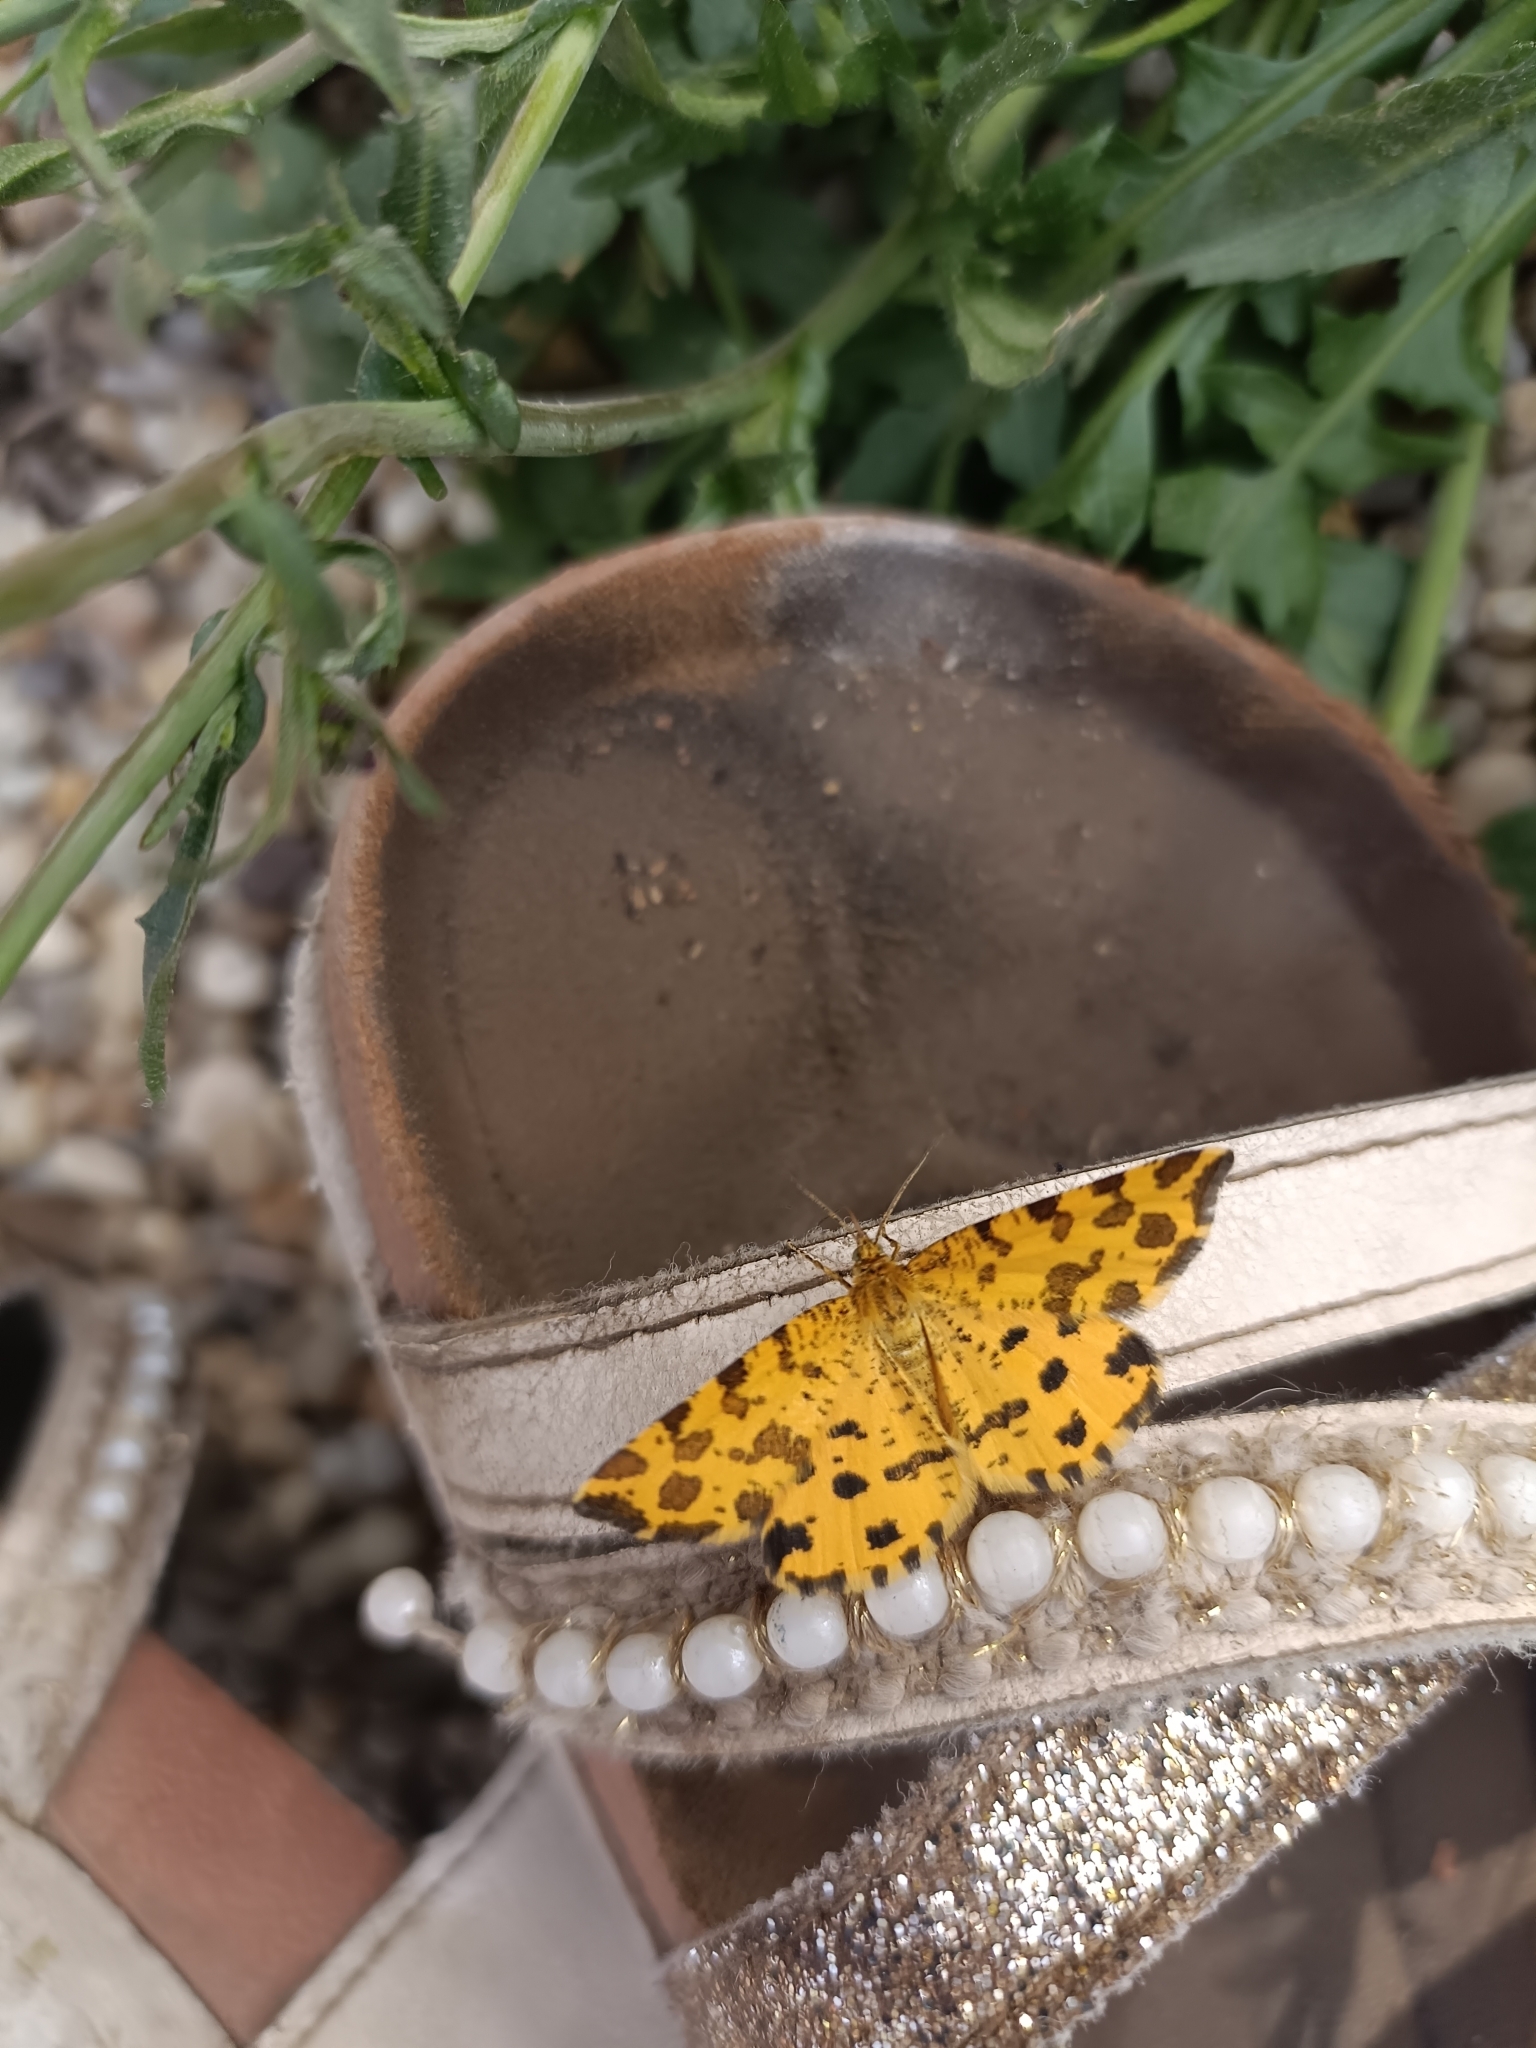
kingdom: Animalia
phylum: Arthropoda
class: Insecta
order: Lepidoptera
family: Geometridae
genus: Pseudopanthera
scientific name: Pseudopanthera macularia
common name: Speckled yellow
